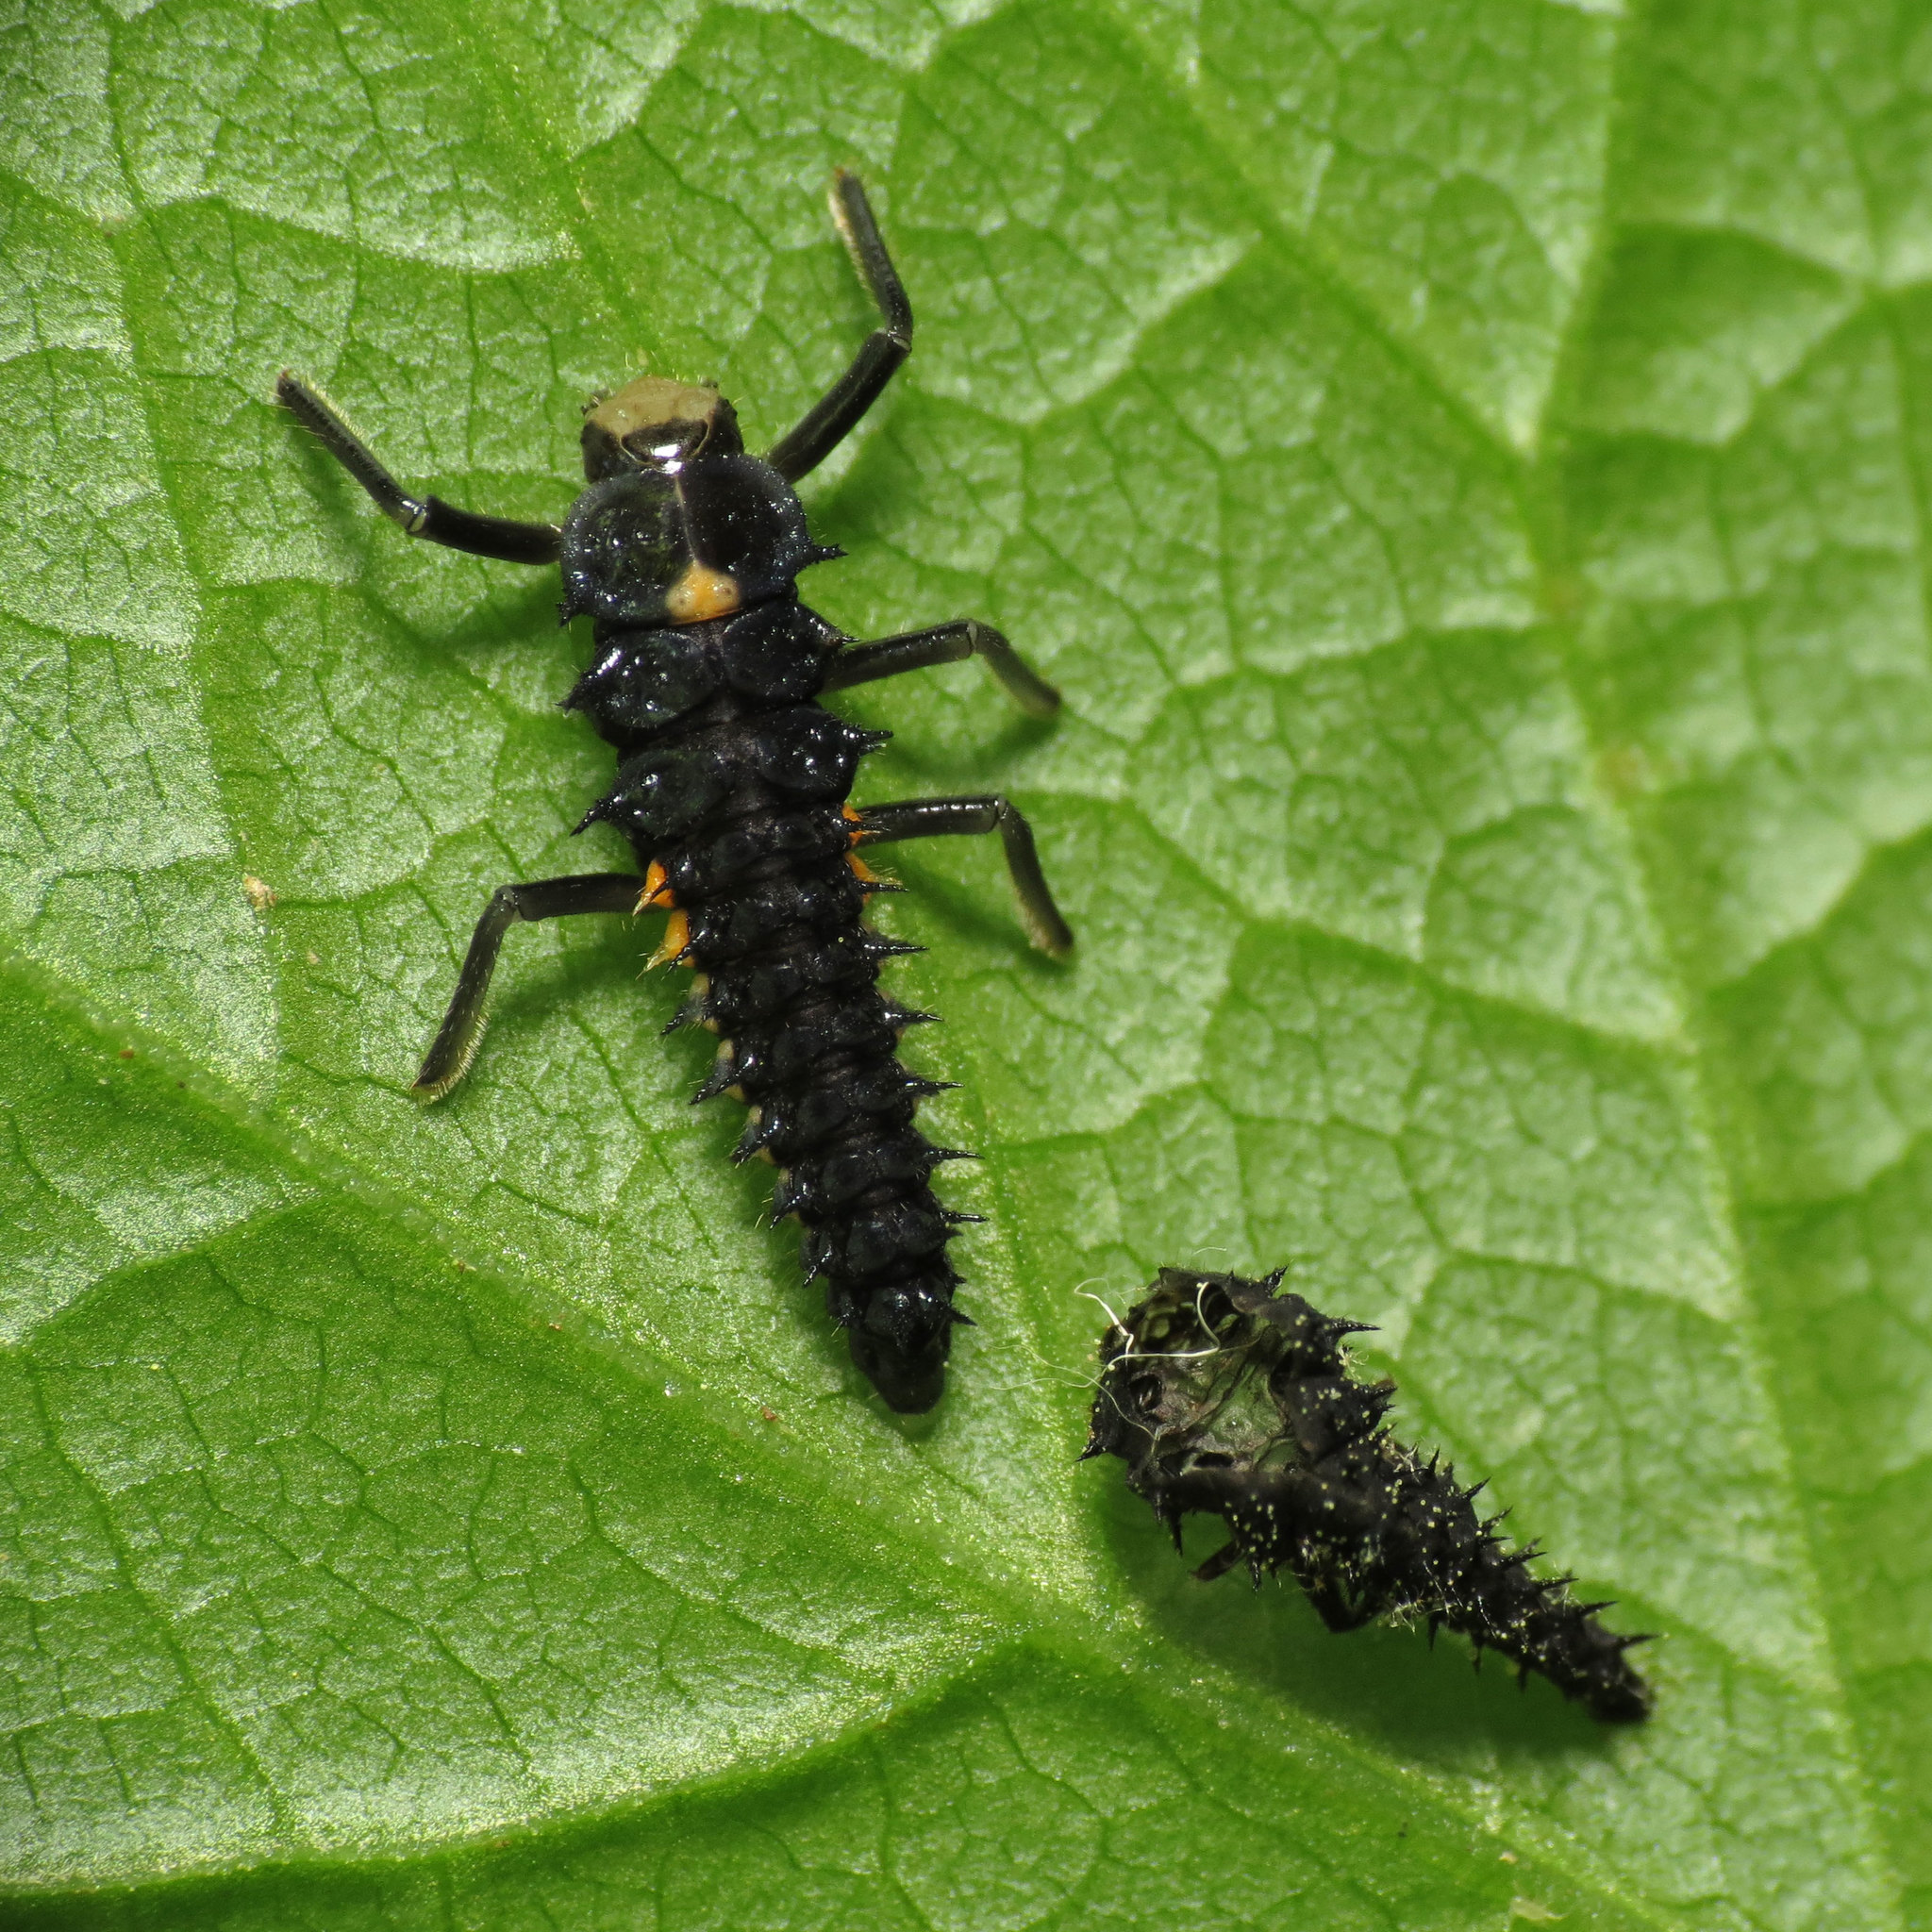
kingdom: Animalia
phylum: Arthropoda
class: Insecta
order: Coleoptera
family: Coccinellidae
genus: Anatis
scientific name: Anatis labiculata
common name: Fifteen-spotted lady beetle
